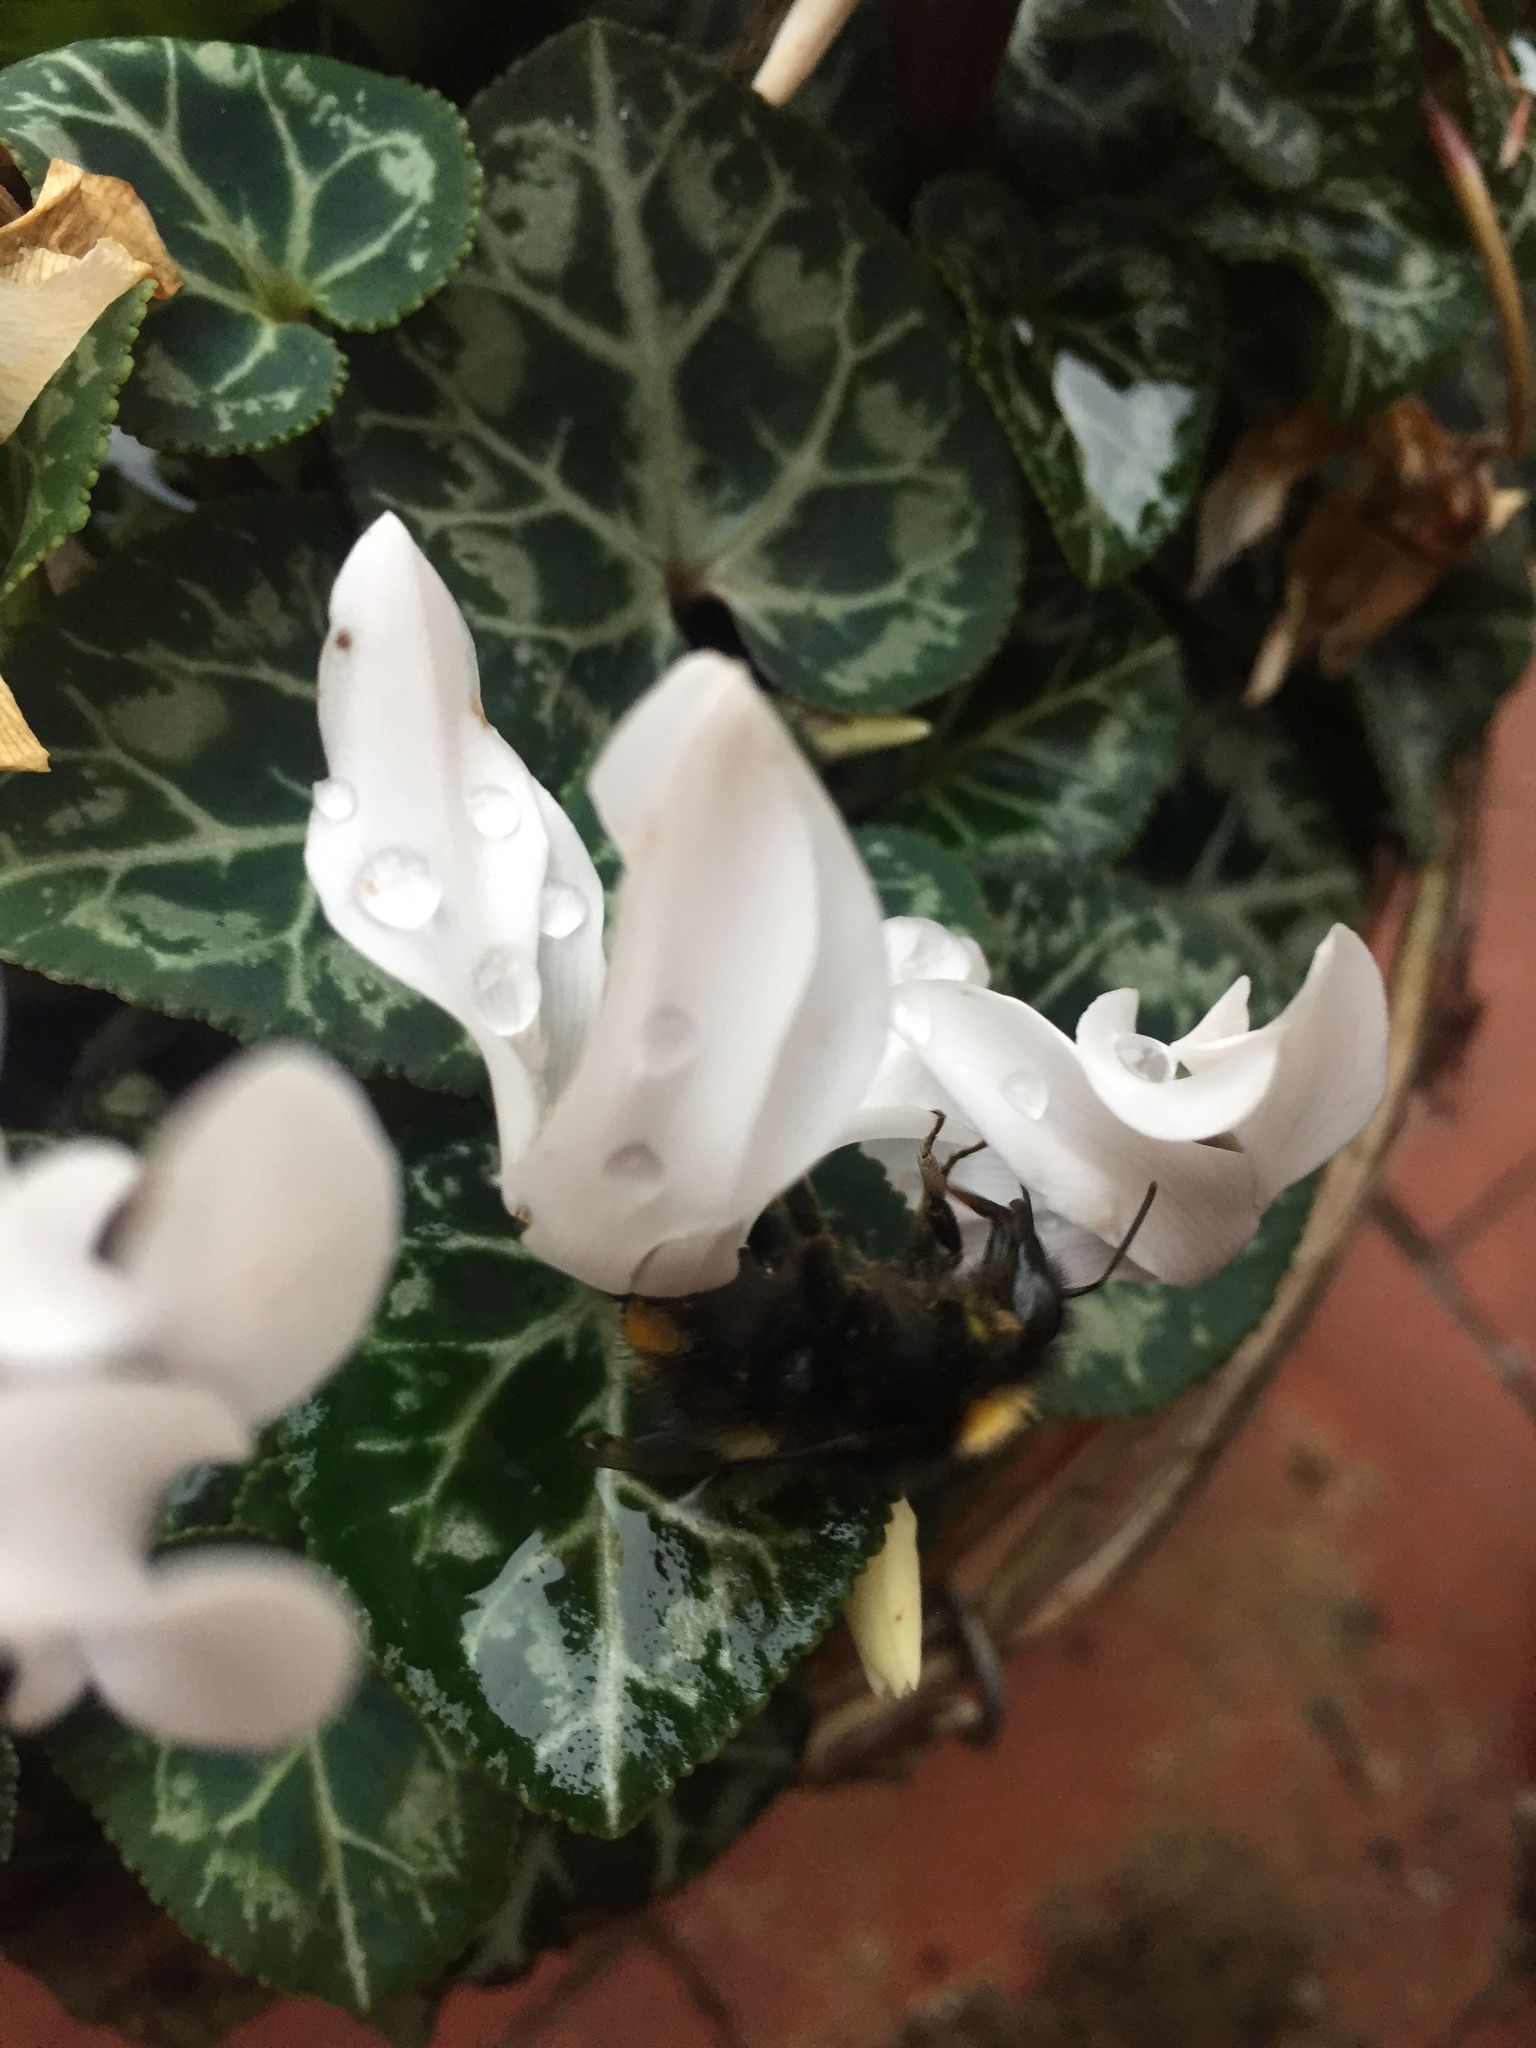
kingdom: Animalia
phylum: Arthropoda
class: Insecta
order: Hymenoptera
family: Apidae
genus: Bombus
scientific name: Bombus pratorum
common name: Early humble-bee
